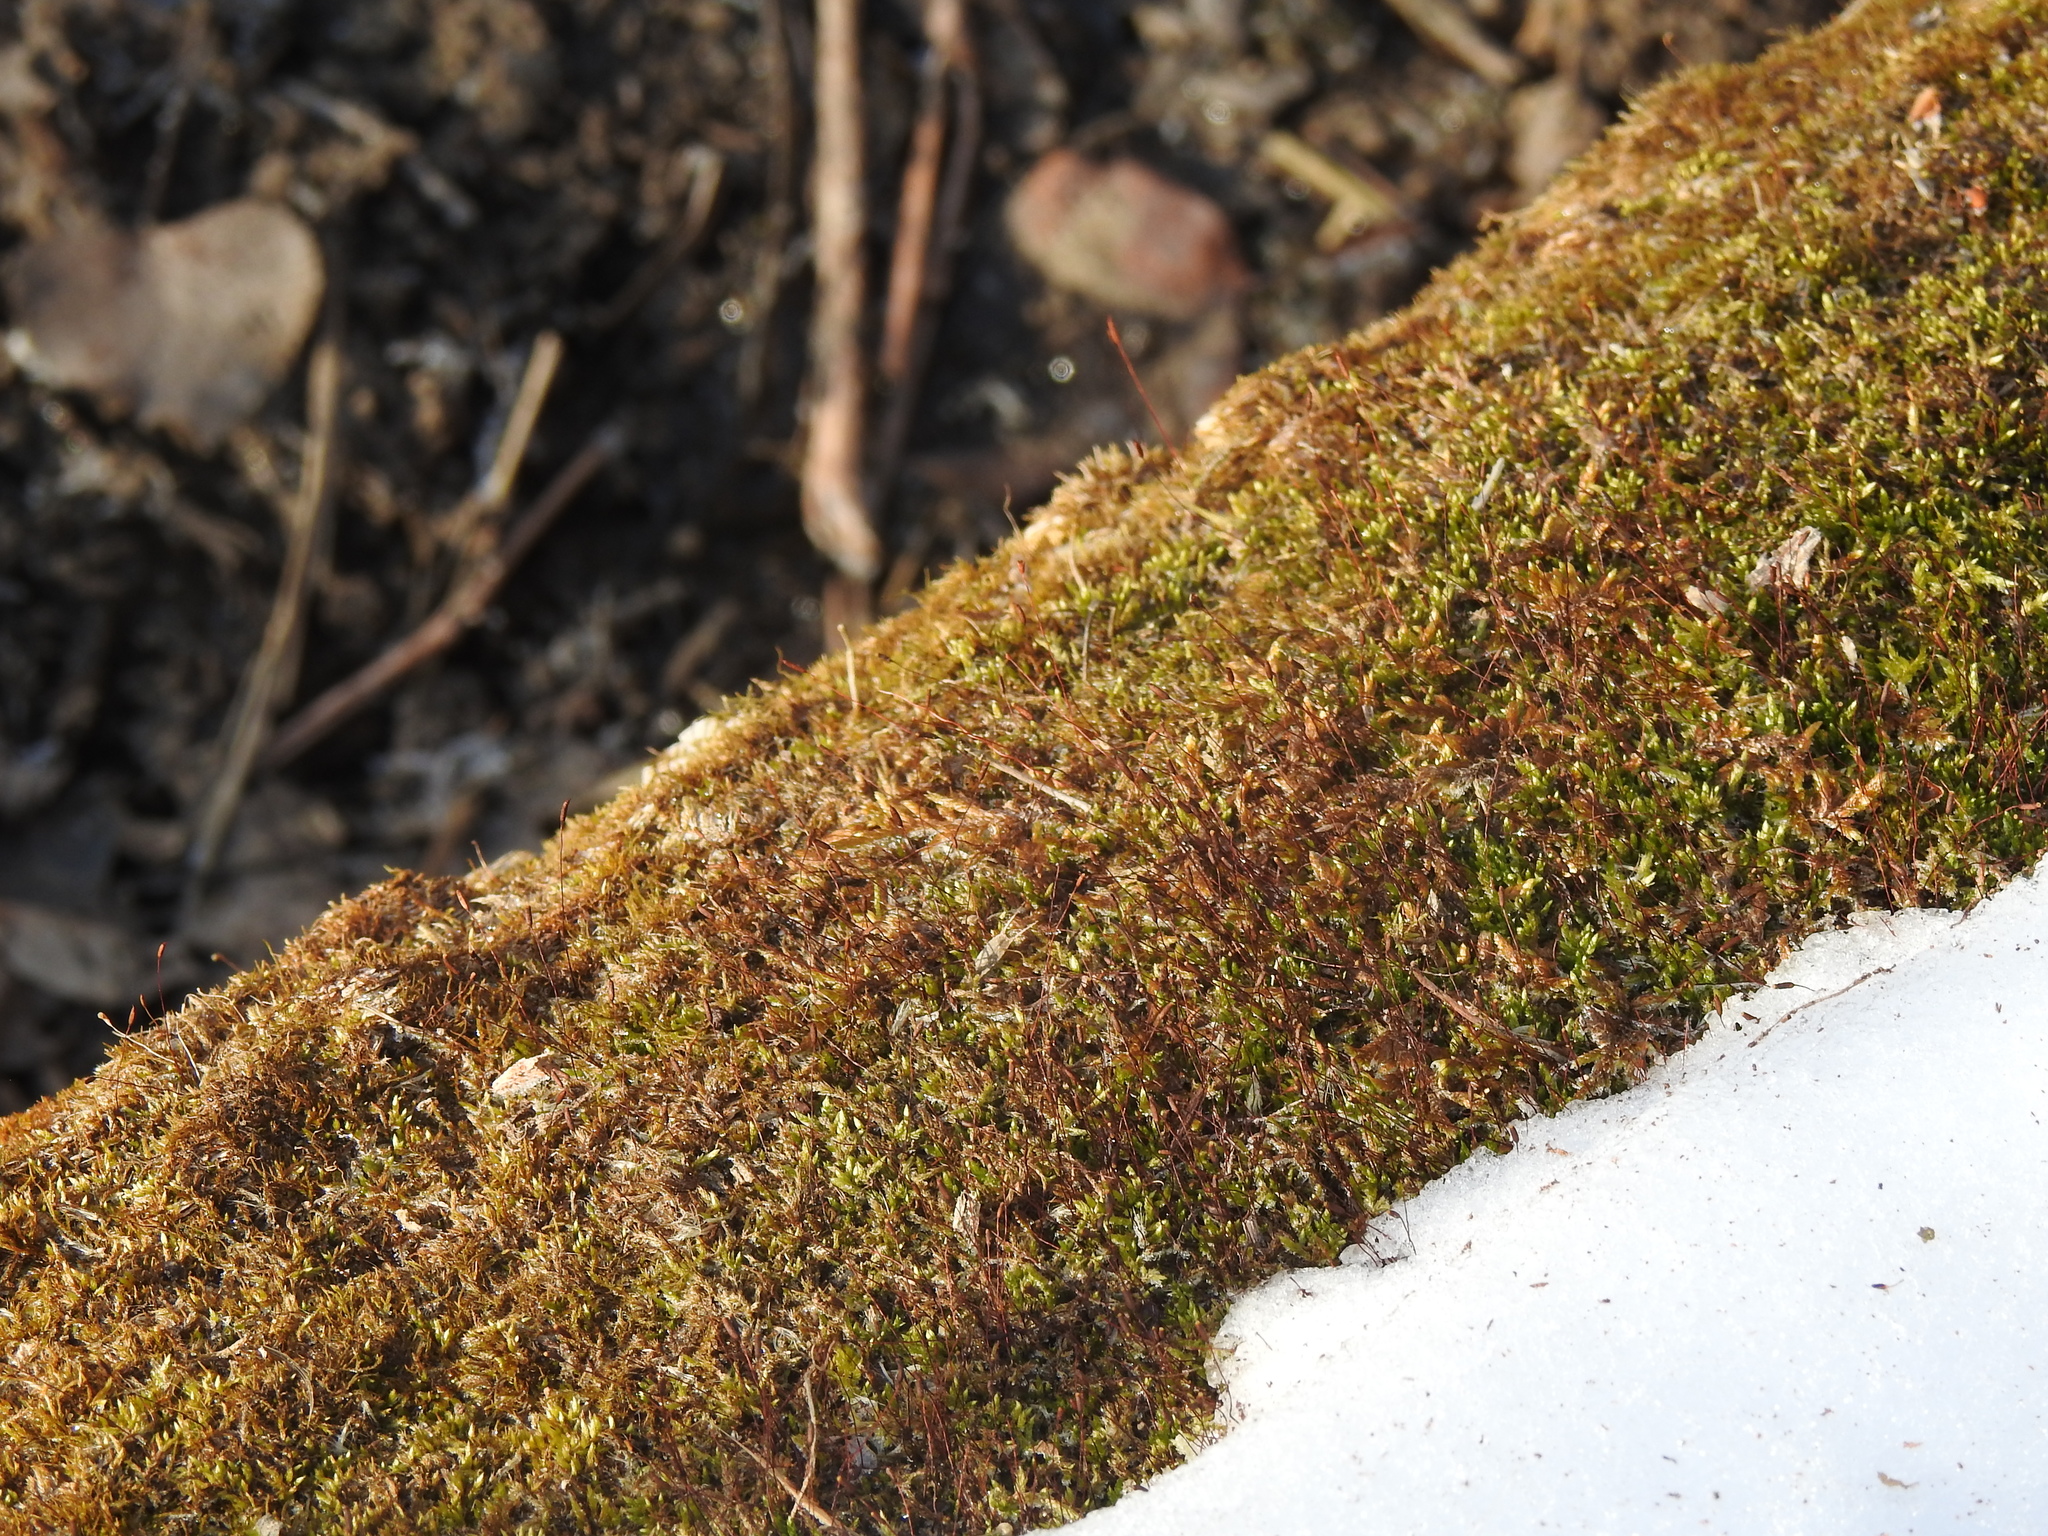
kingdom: Plantae
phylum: Bryophyta
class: Bryopsida
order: Dicranales
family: Ditrichaceae
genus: Ceratodon
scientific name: Ceratodon purpureus
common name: Redshank
